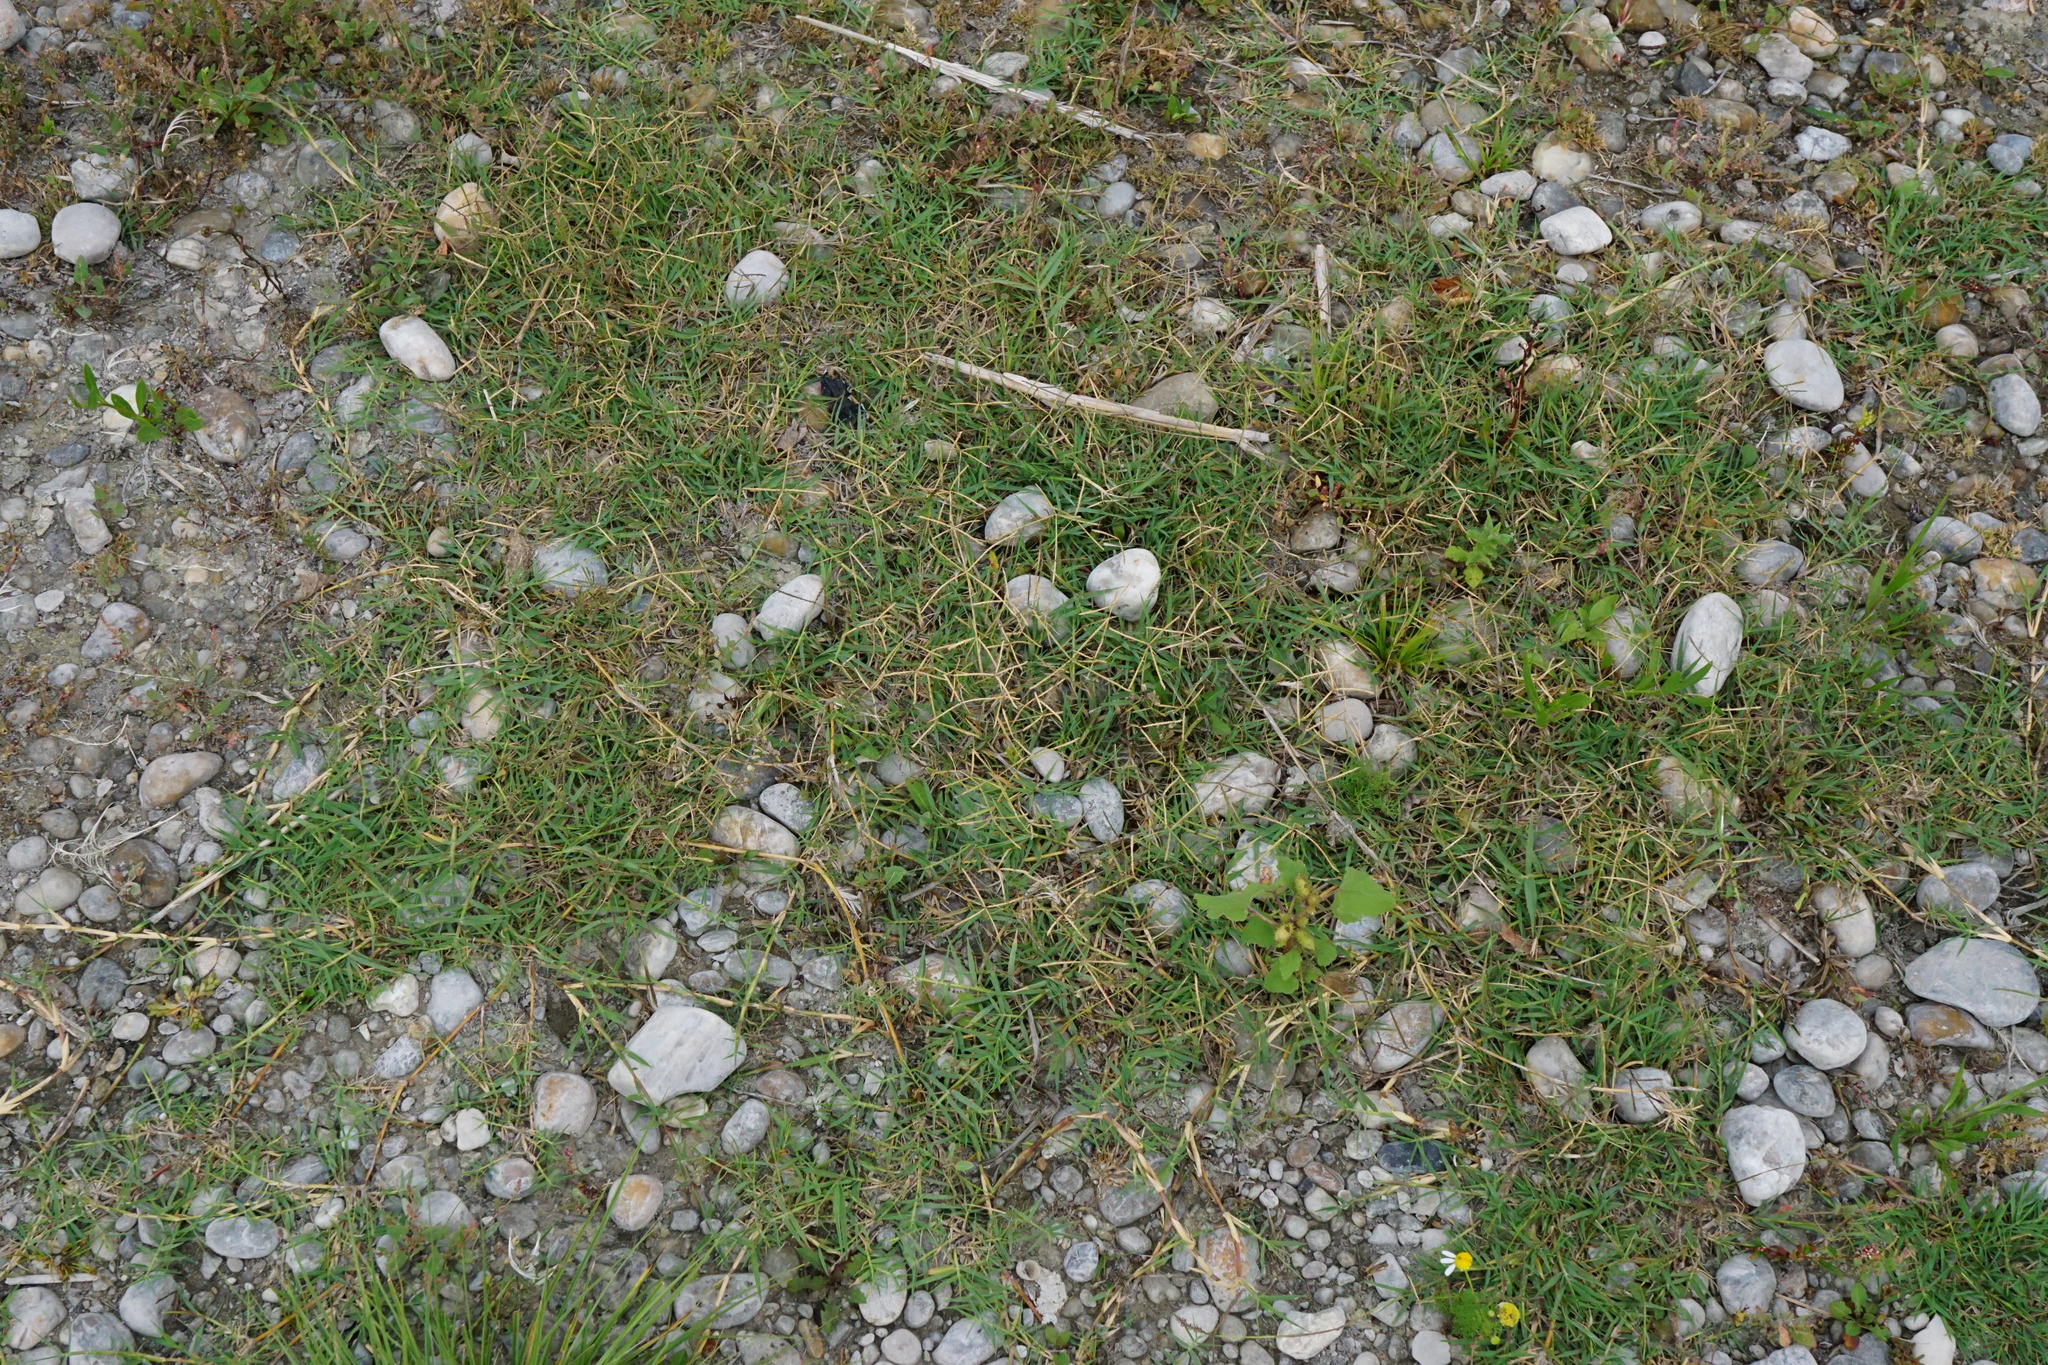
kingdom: Plantae
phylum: Tracheophyta
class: Liliopsida
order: Poales
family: Poaceae
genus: Cynodon
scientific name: Cynodon dactylon
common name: Bermuda grass
